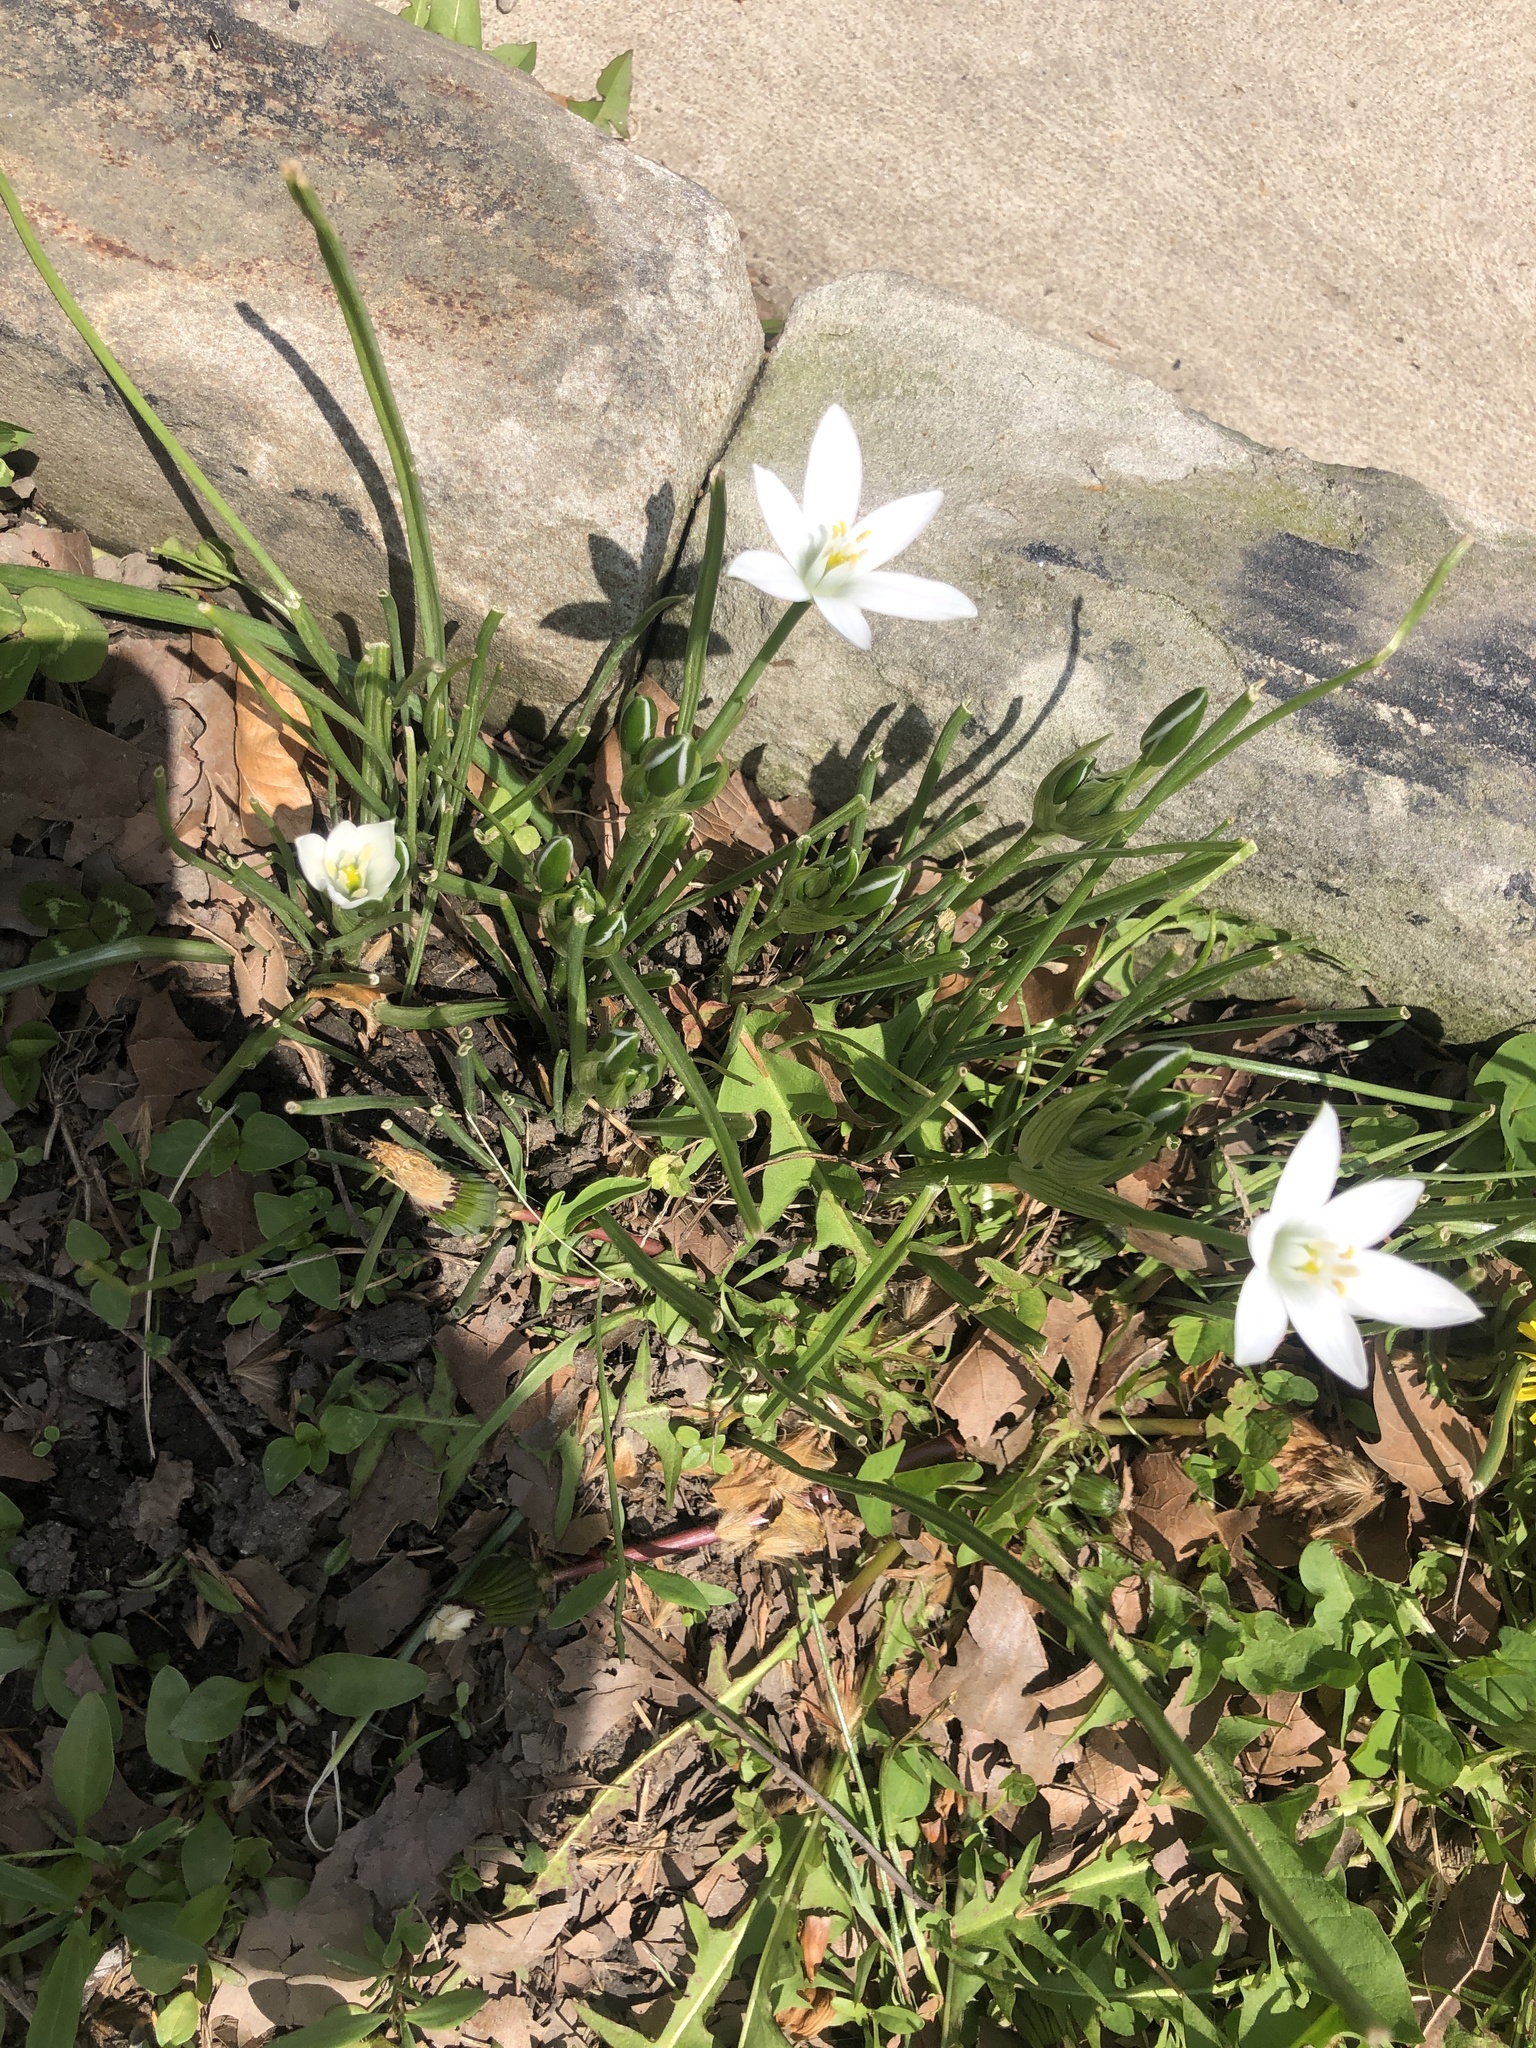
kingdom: Plantae
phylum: Tracheophyta
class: Liliopsida
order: Asparagales
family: Asparagaceae
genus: Ornithogalum
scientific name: Ornithogalum umbellatum
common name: Garden star-of-bethlehem
